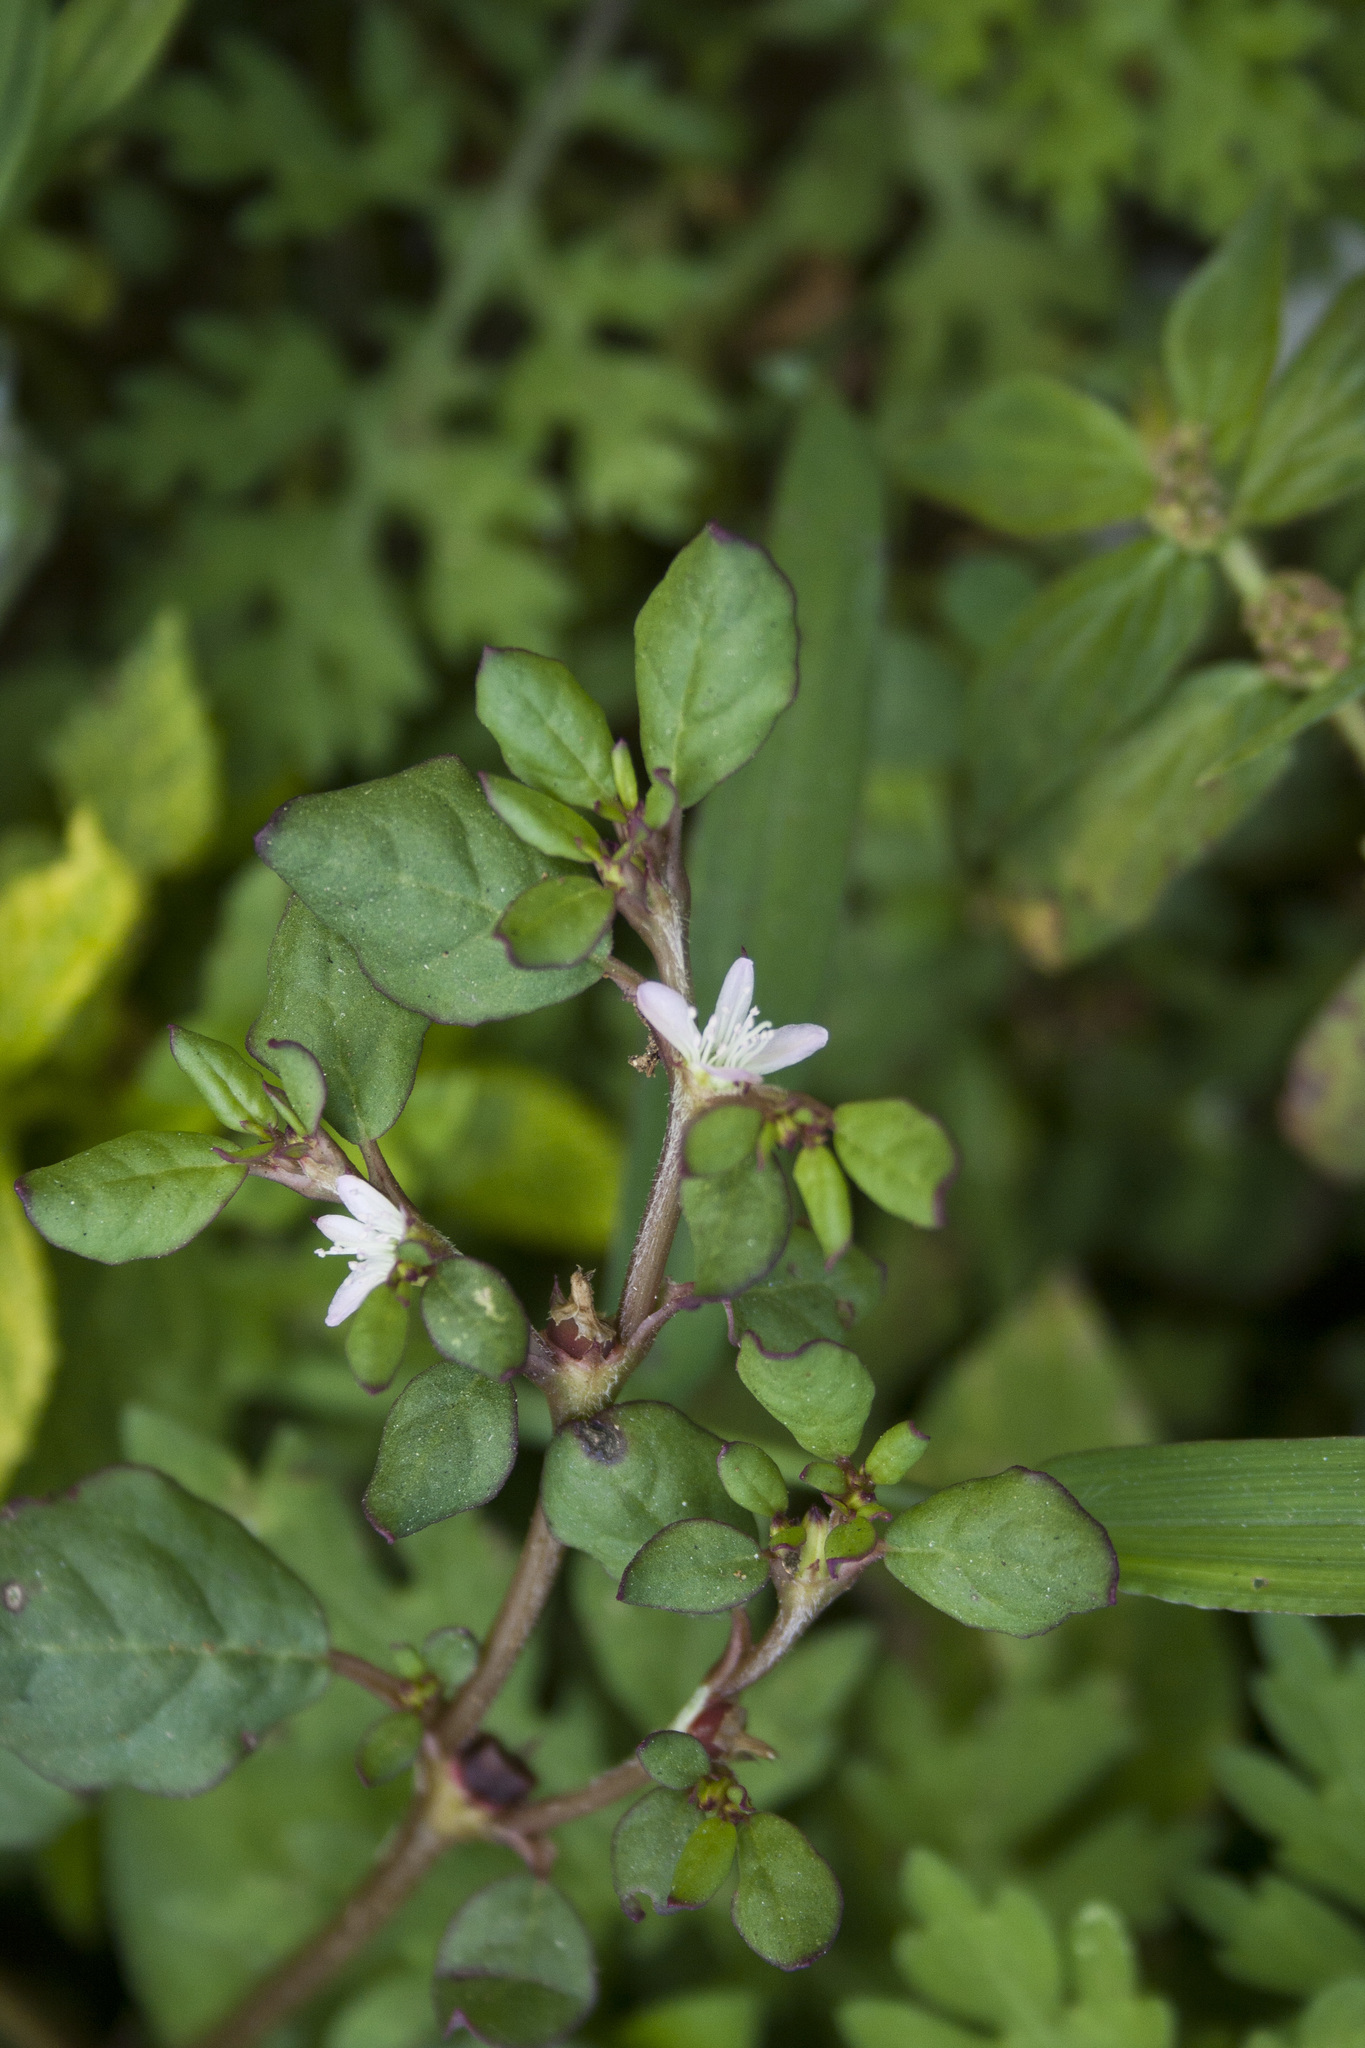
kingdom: Plantae
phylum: Tracheophyta
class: Magnoliopsida
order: Caryophyllales
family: Aizoaceae
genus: Trianthema
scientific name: Trianthema portulacastrum
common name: Desert horsepurslane
